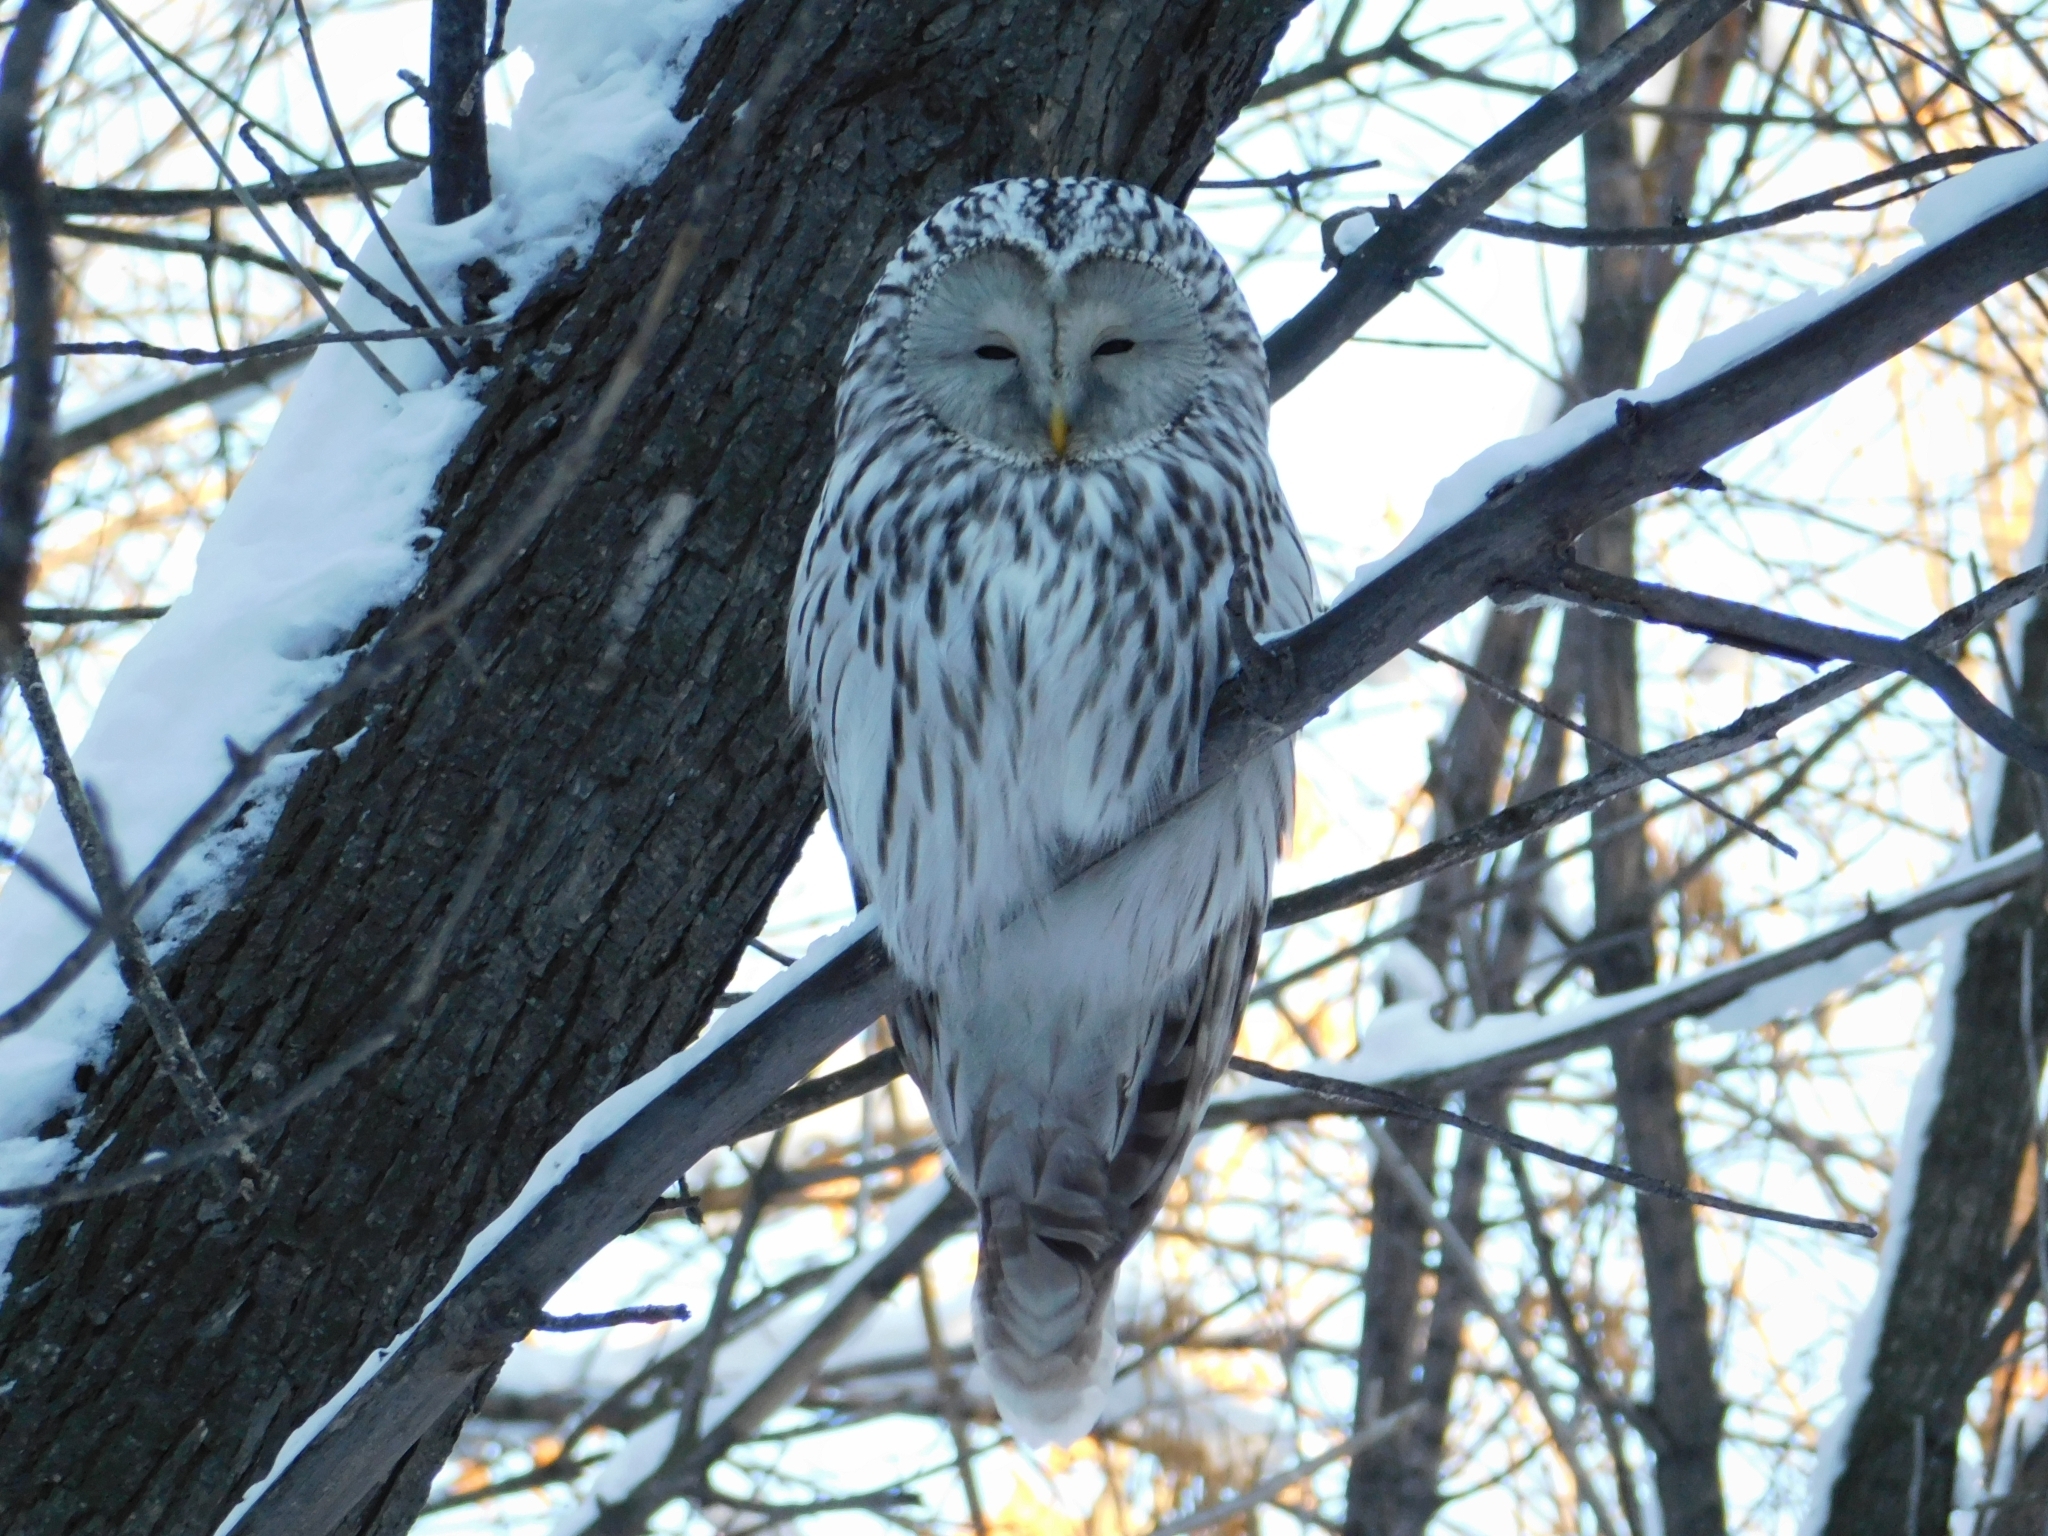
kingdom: Animalia
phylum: Chordata
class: Aves
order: Strigiformes
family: Strigidae
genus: Strix
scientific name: Strix uralensis
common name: Ural owl
